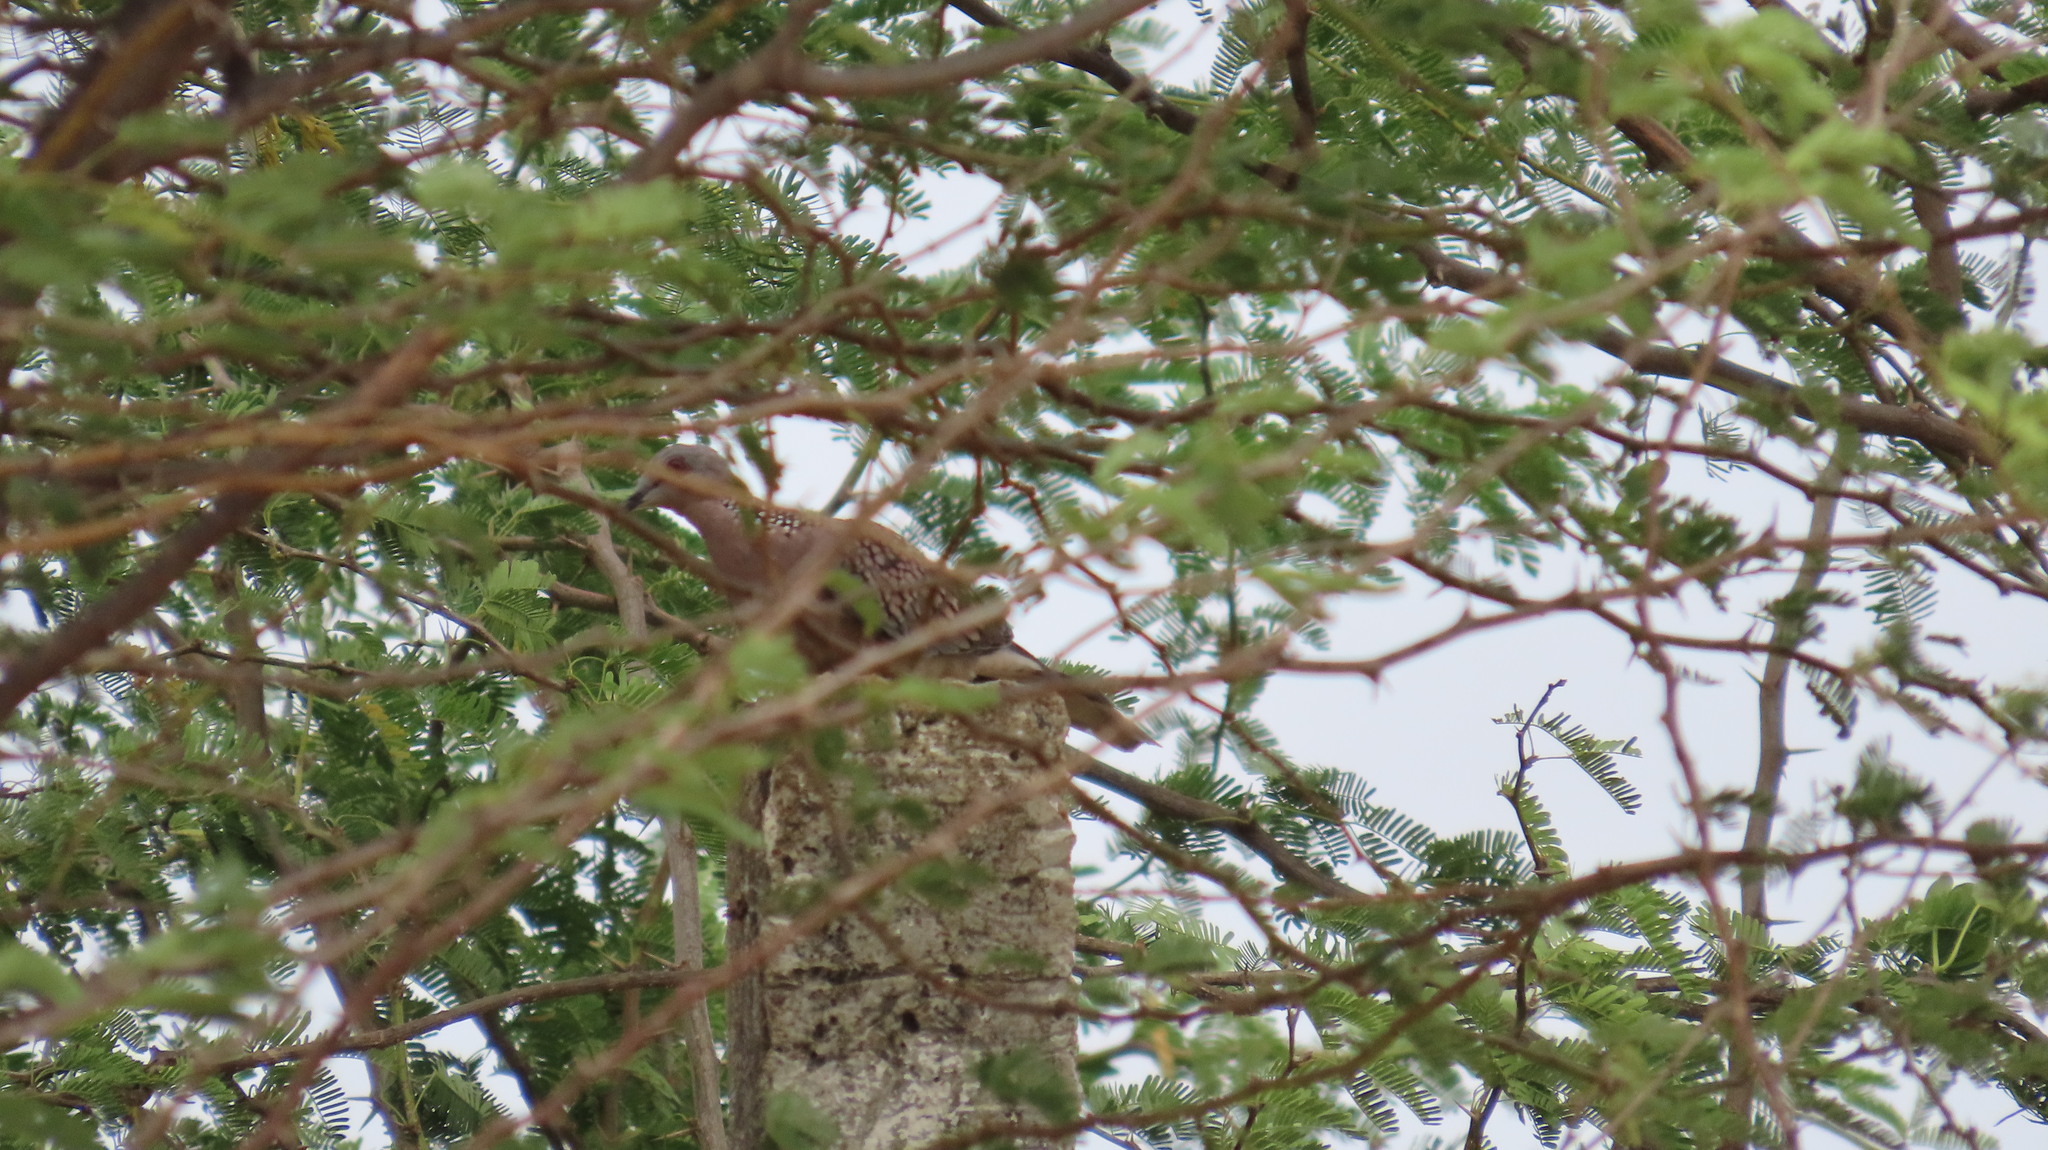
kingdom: Animalia
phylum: Chordata
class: Aves
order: Columbiformes
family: Columbidae
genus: Spilopelia
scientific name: Spilopelia chinensis
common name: Spotted dove
